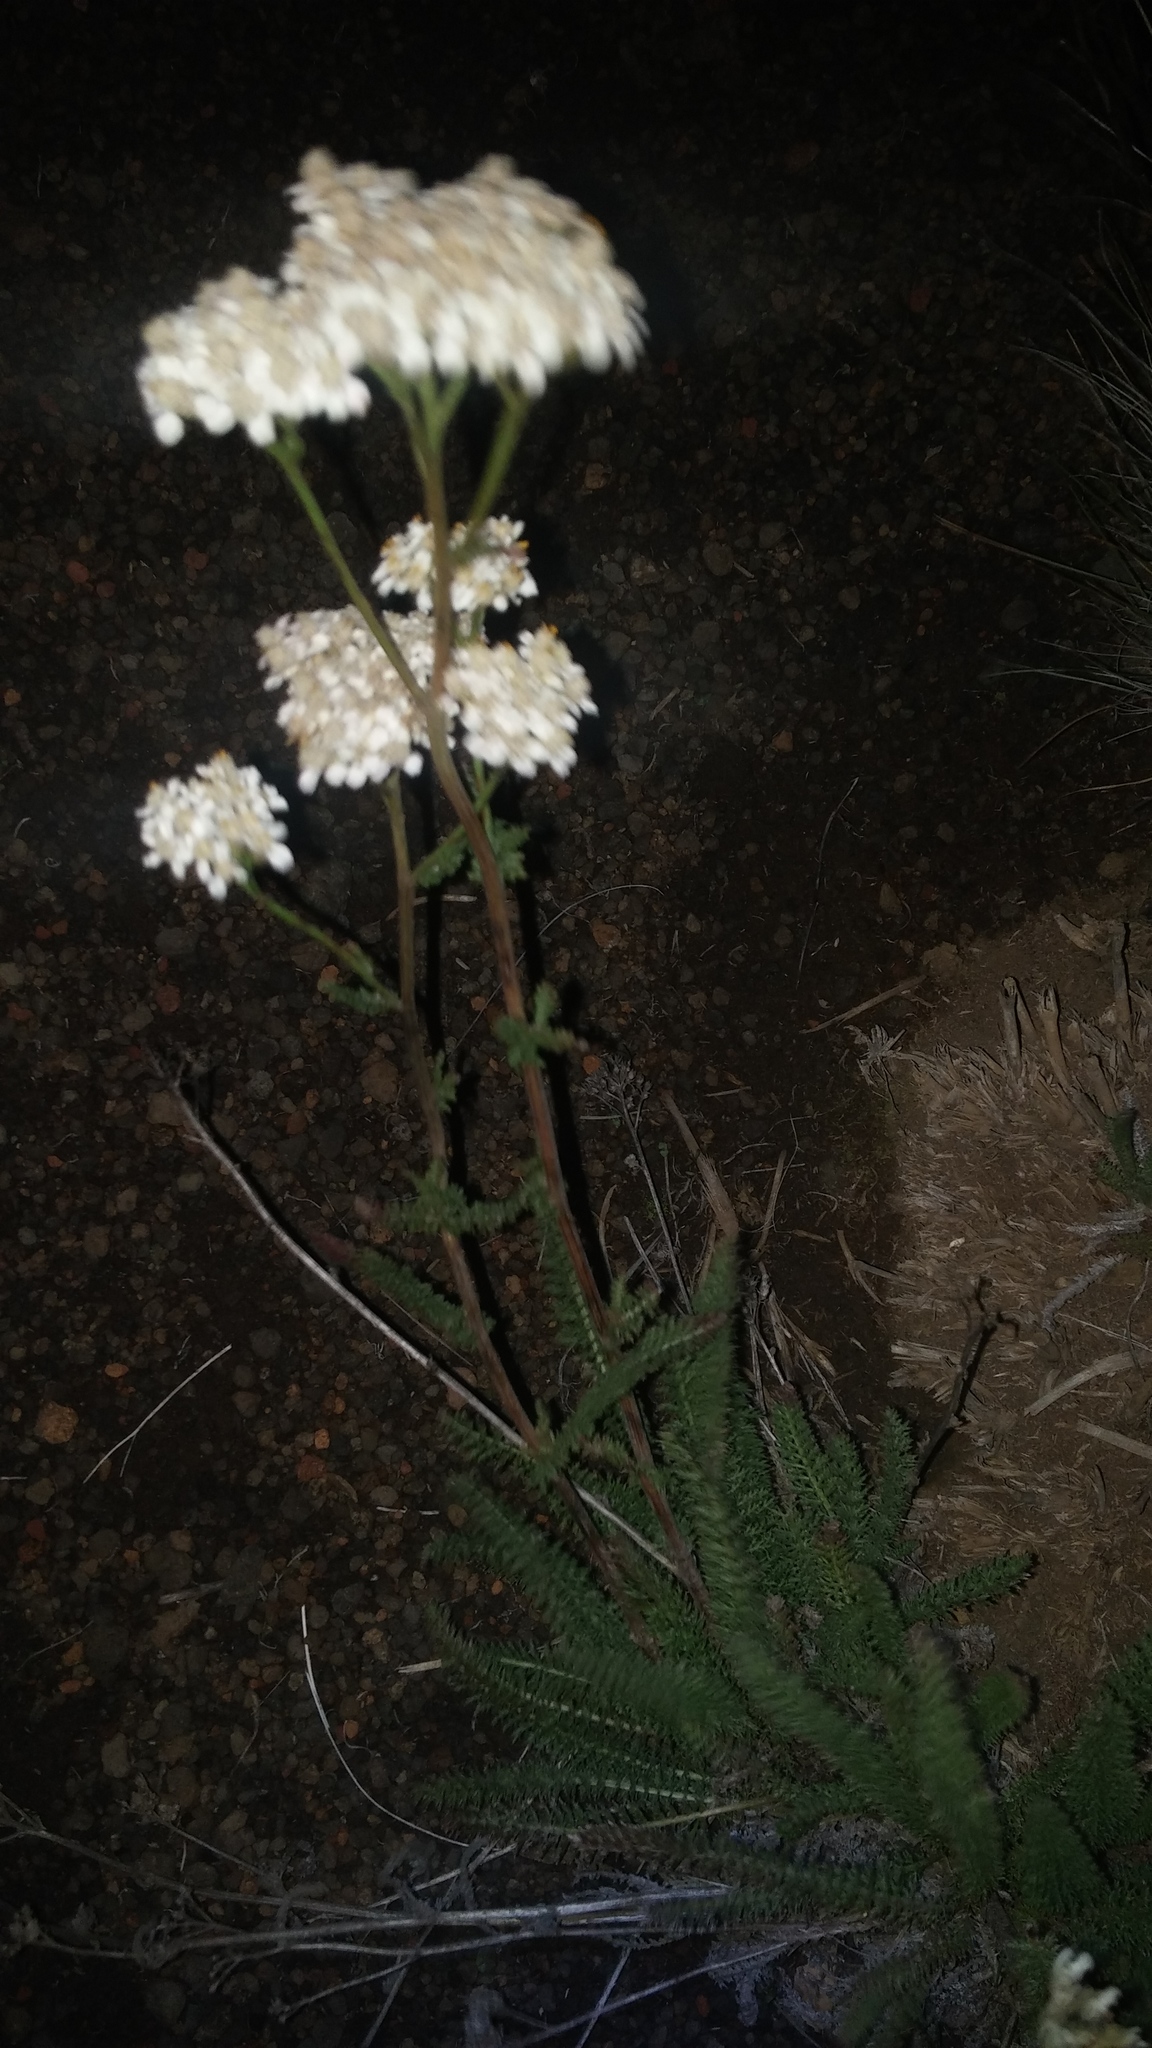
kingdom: Plantae
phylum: Tracheophyta
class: Magnoliopsida
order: Asterales
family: Asteraceae
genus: Achillea
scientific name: Achillea millefolium
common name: Yarrow
